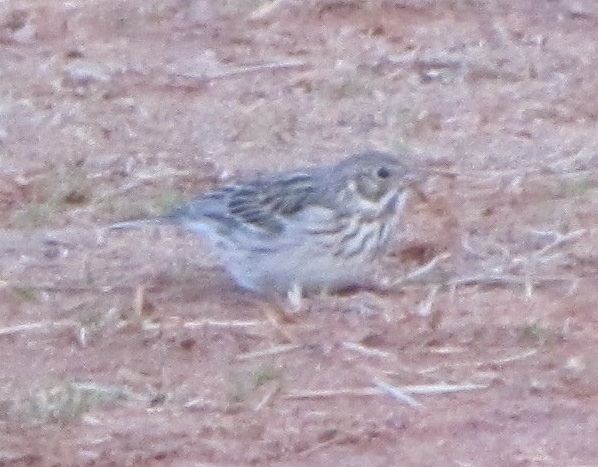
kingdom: Animalia
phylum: Chordata
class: Aves
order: Passeriformes
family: Passerellidae
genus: Pooecetes
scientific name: Pooecetes gramineus
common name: Vesper sparrow
